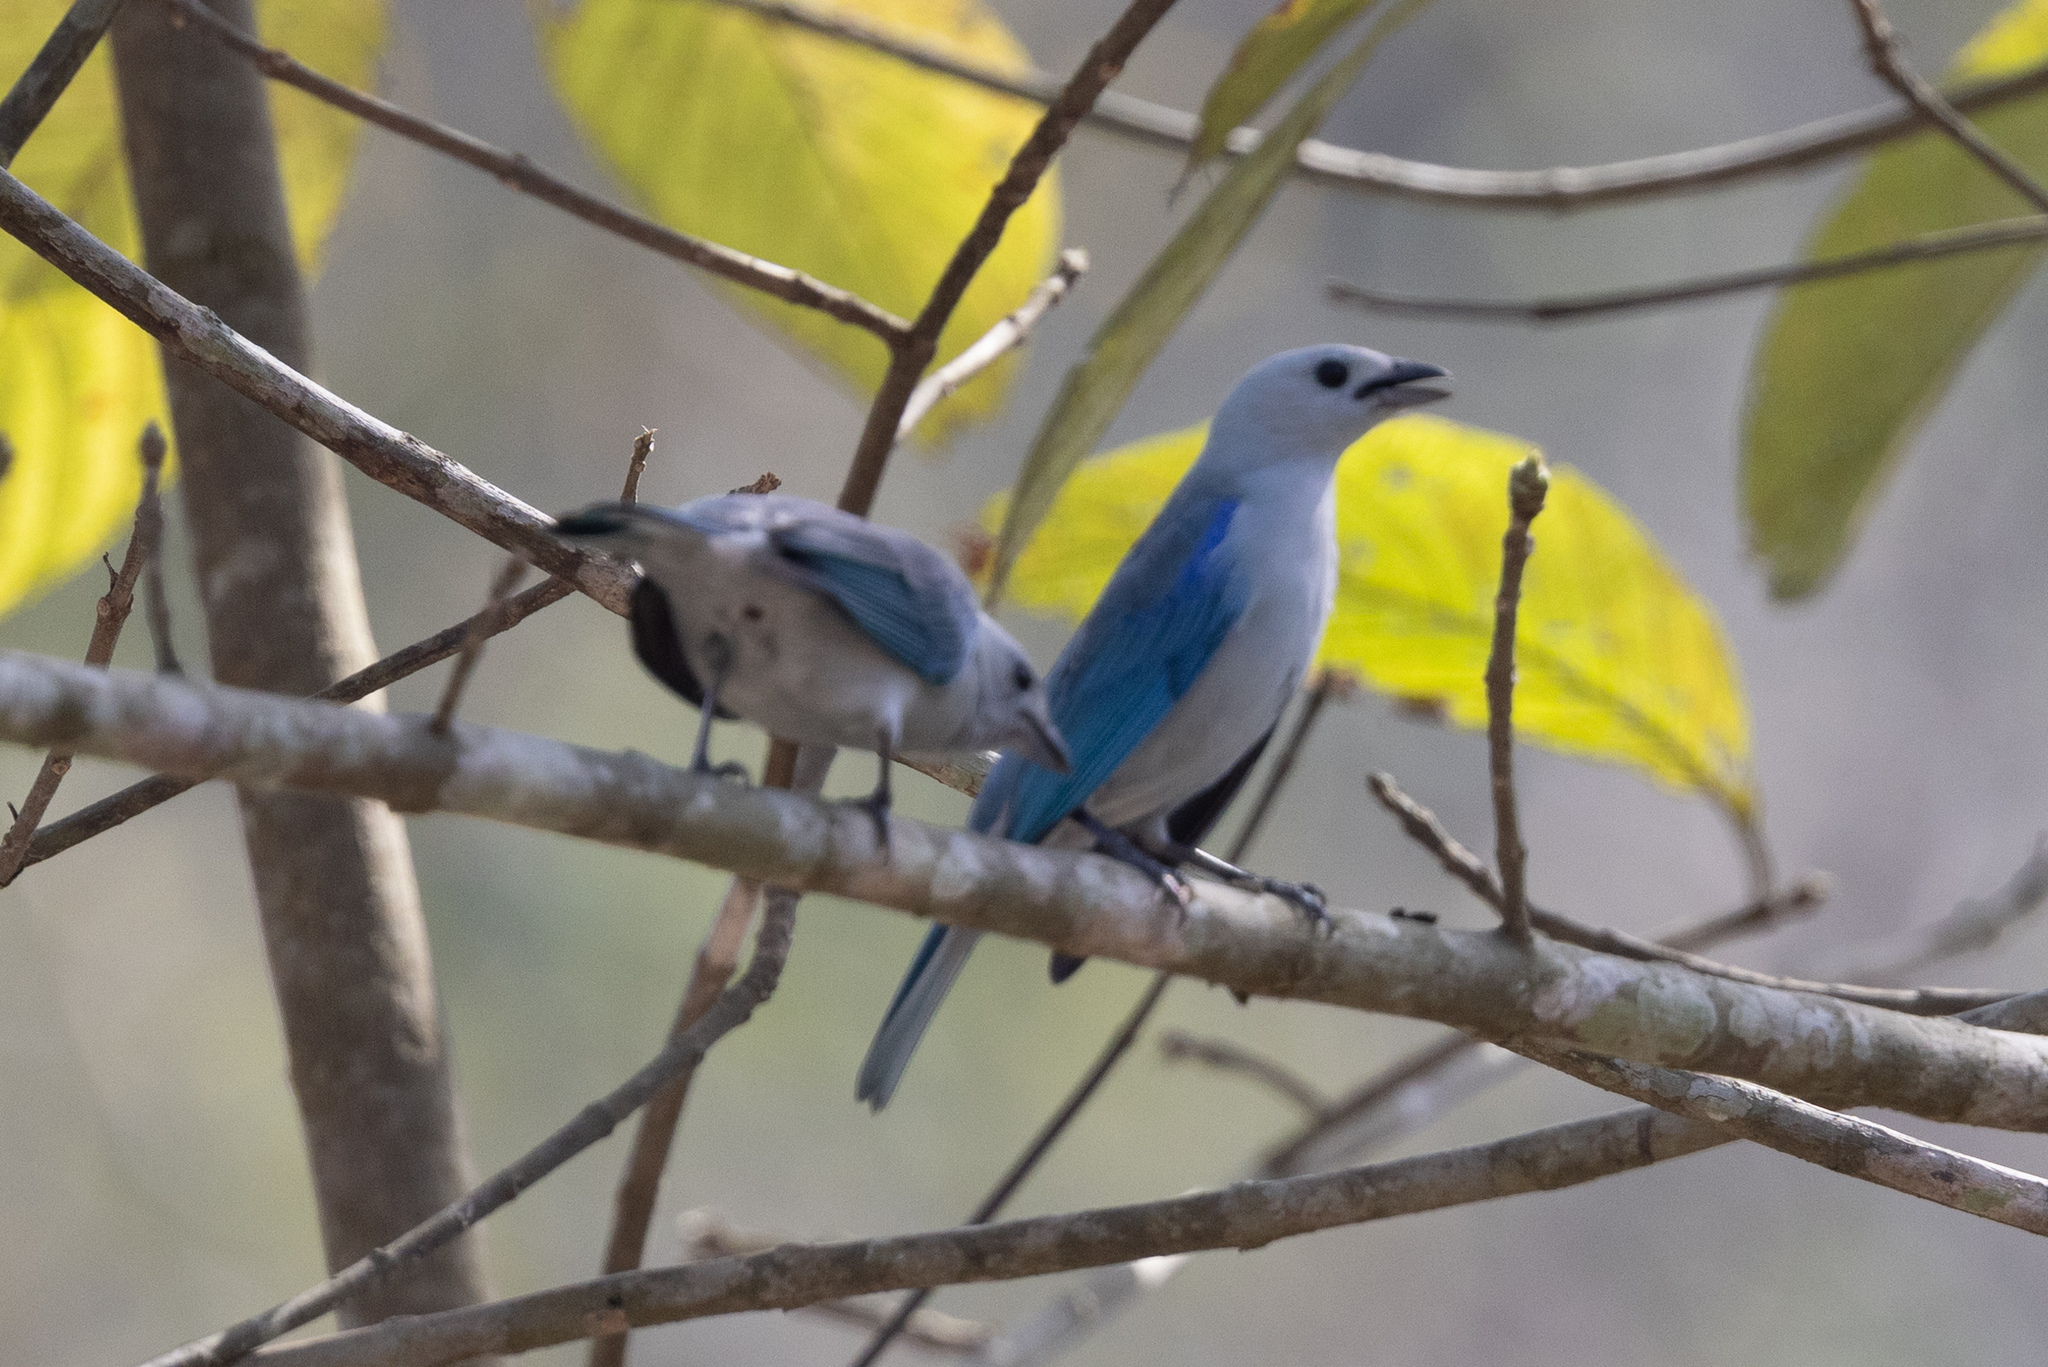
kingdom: Animalia
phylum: Chordata
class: Aves
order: Passeriformes
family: Thraupidae
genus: Thraupis
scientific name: Thraupis episcopus
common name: Blue-grey tanager
